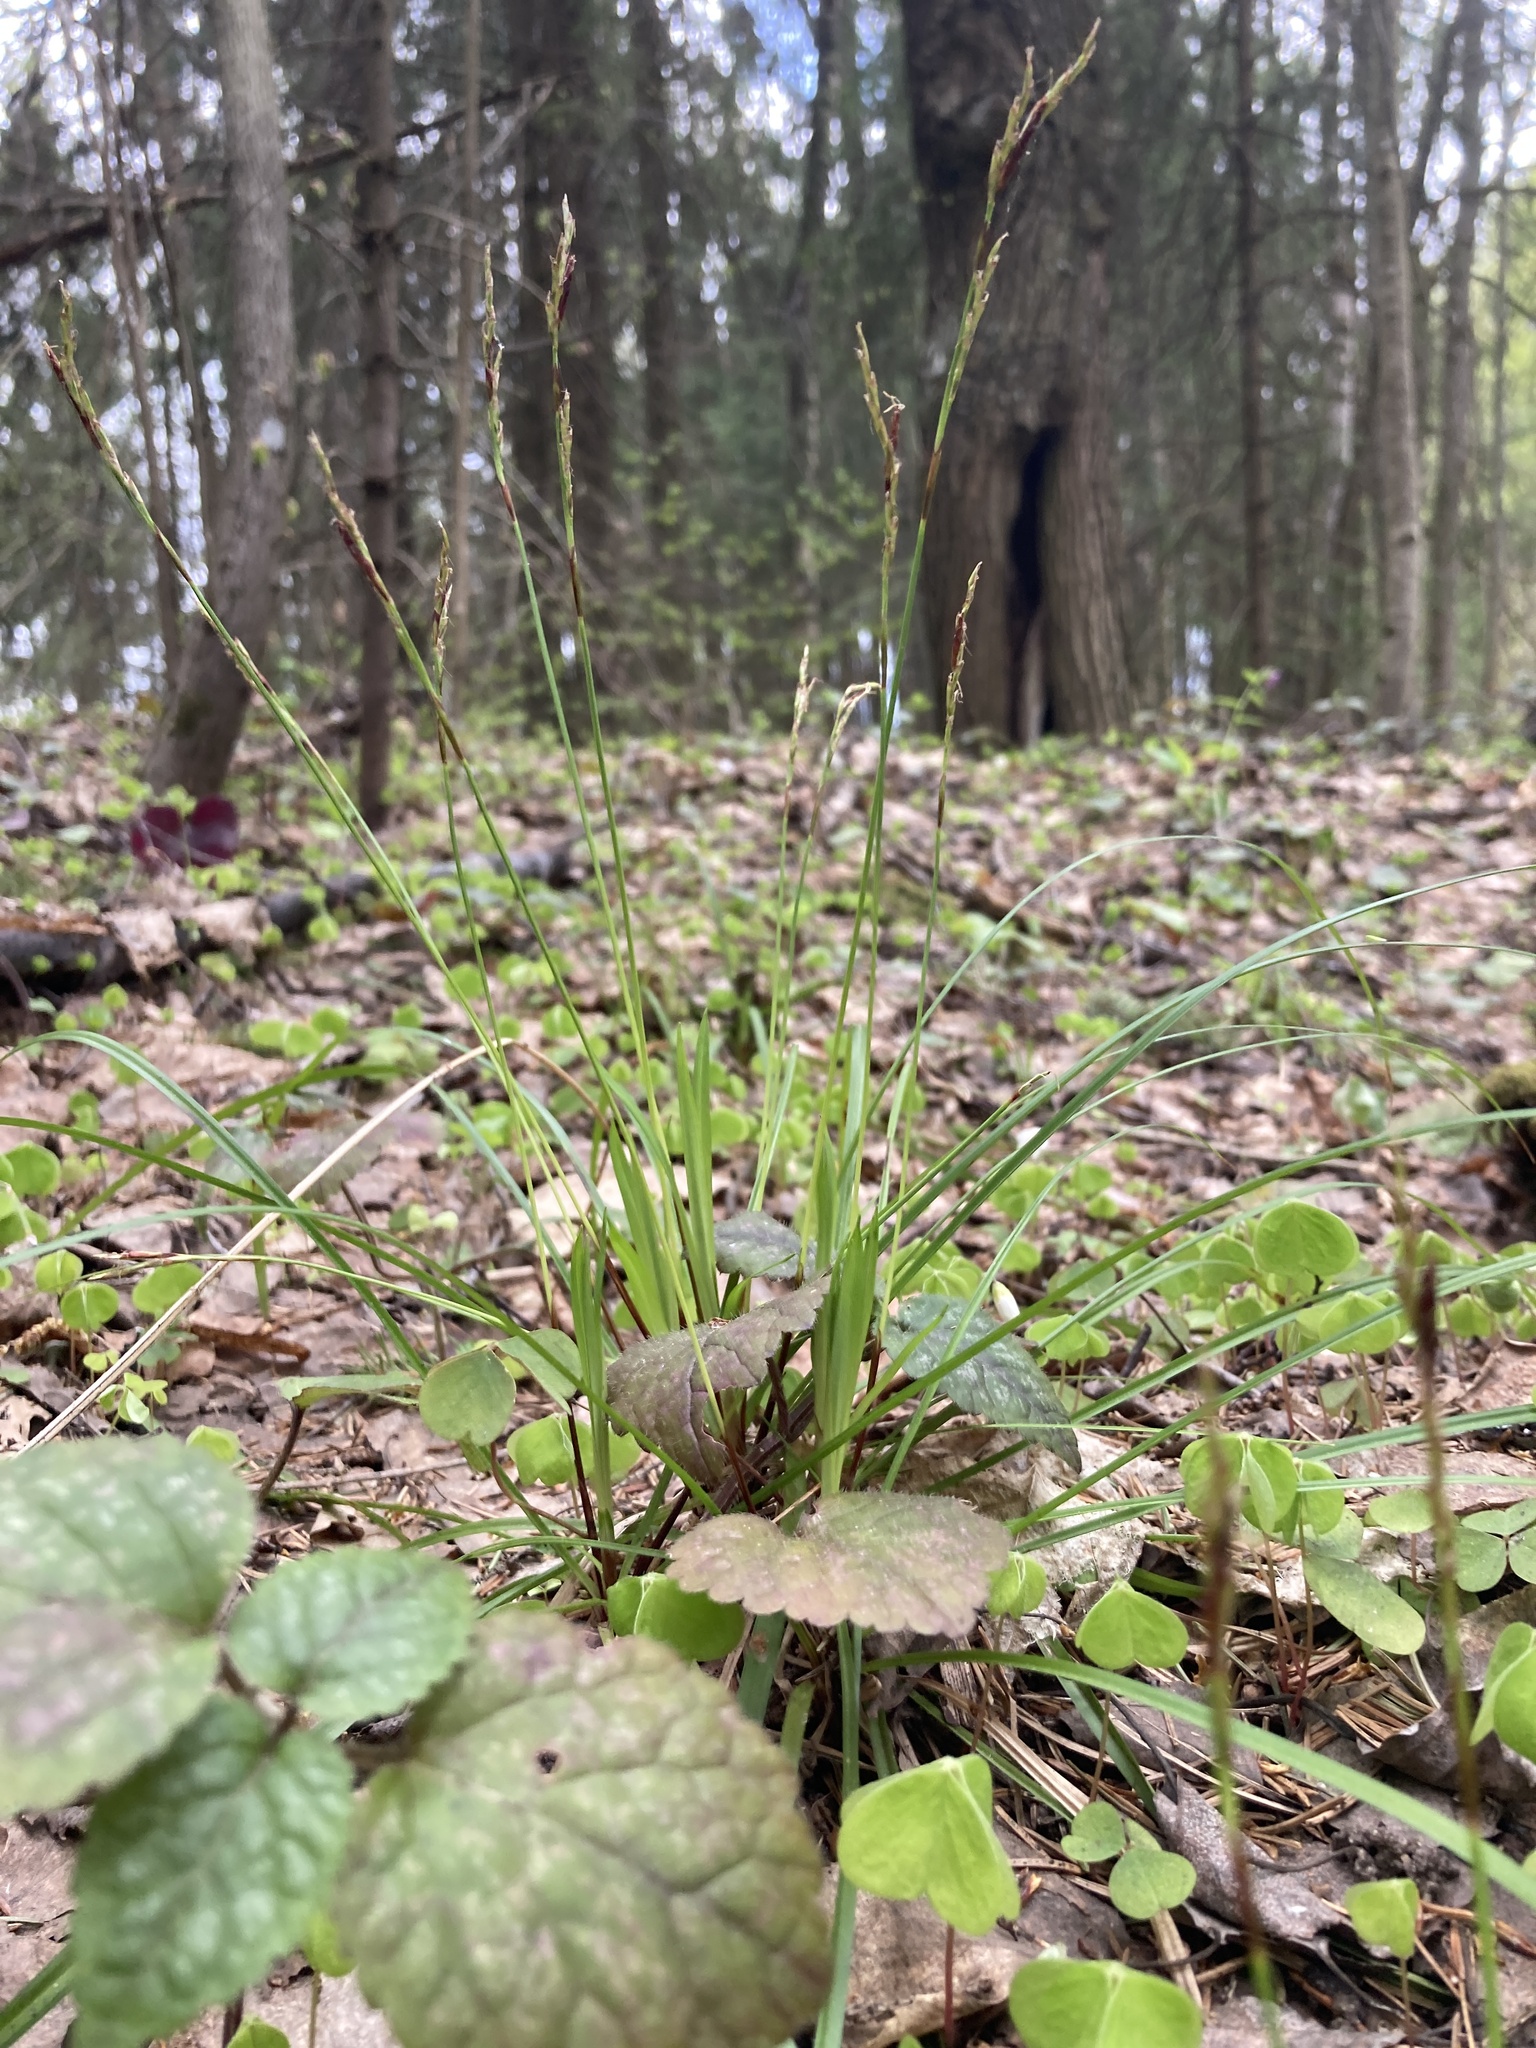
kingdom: Plantae
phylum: Tracheophyta
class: Liliopsida
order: Poales
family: Cyperaceae
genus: Carex
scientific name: Carex digitata
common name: Fingered sedge
